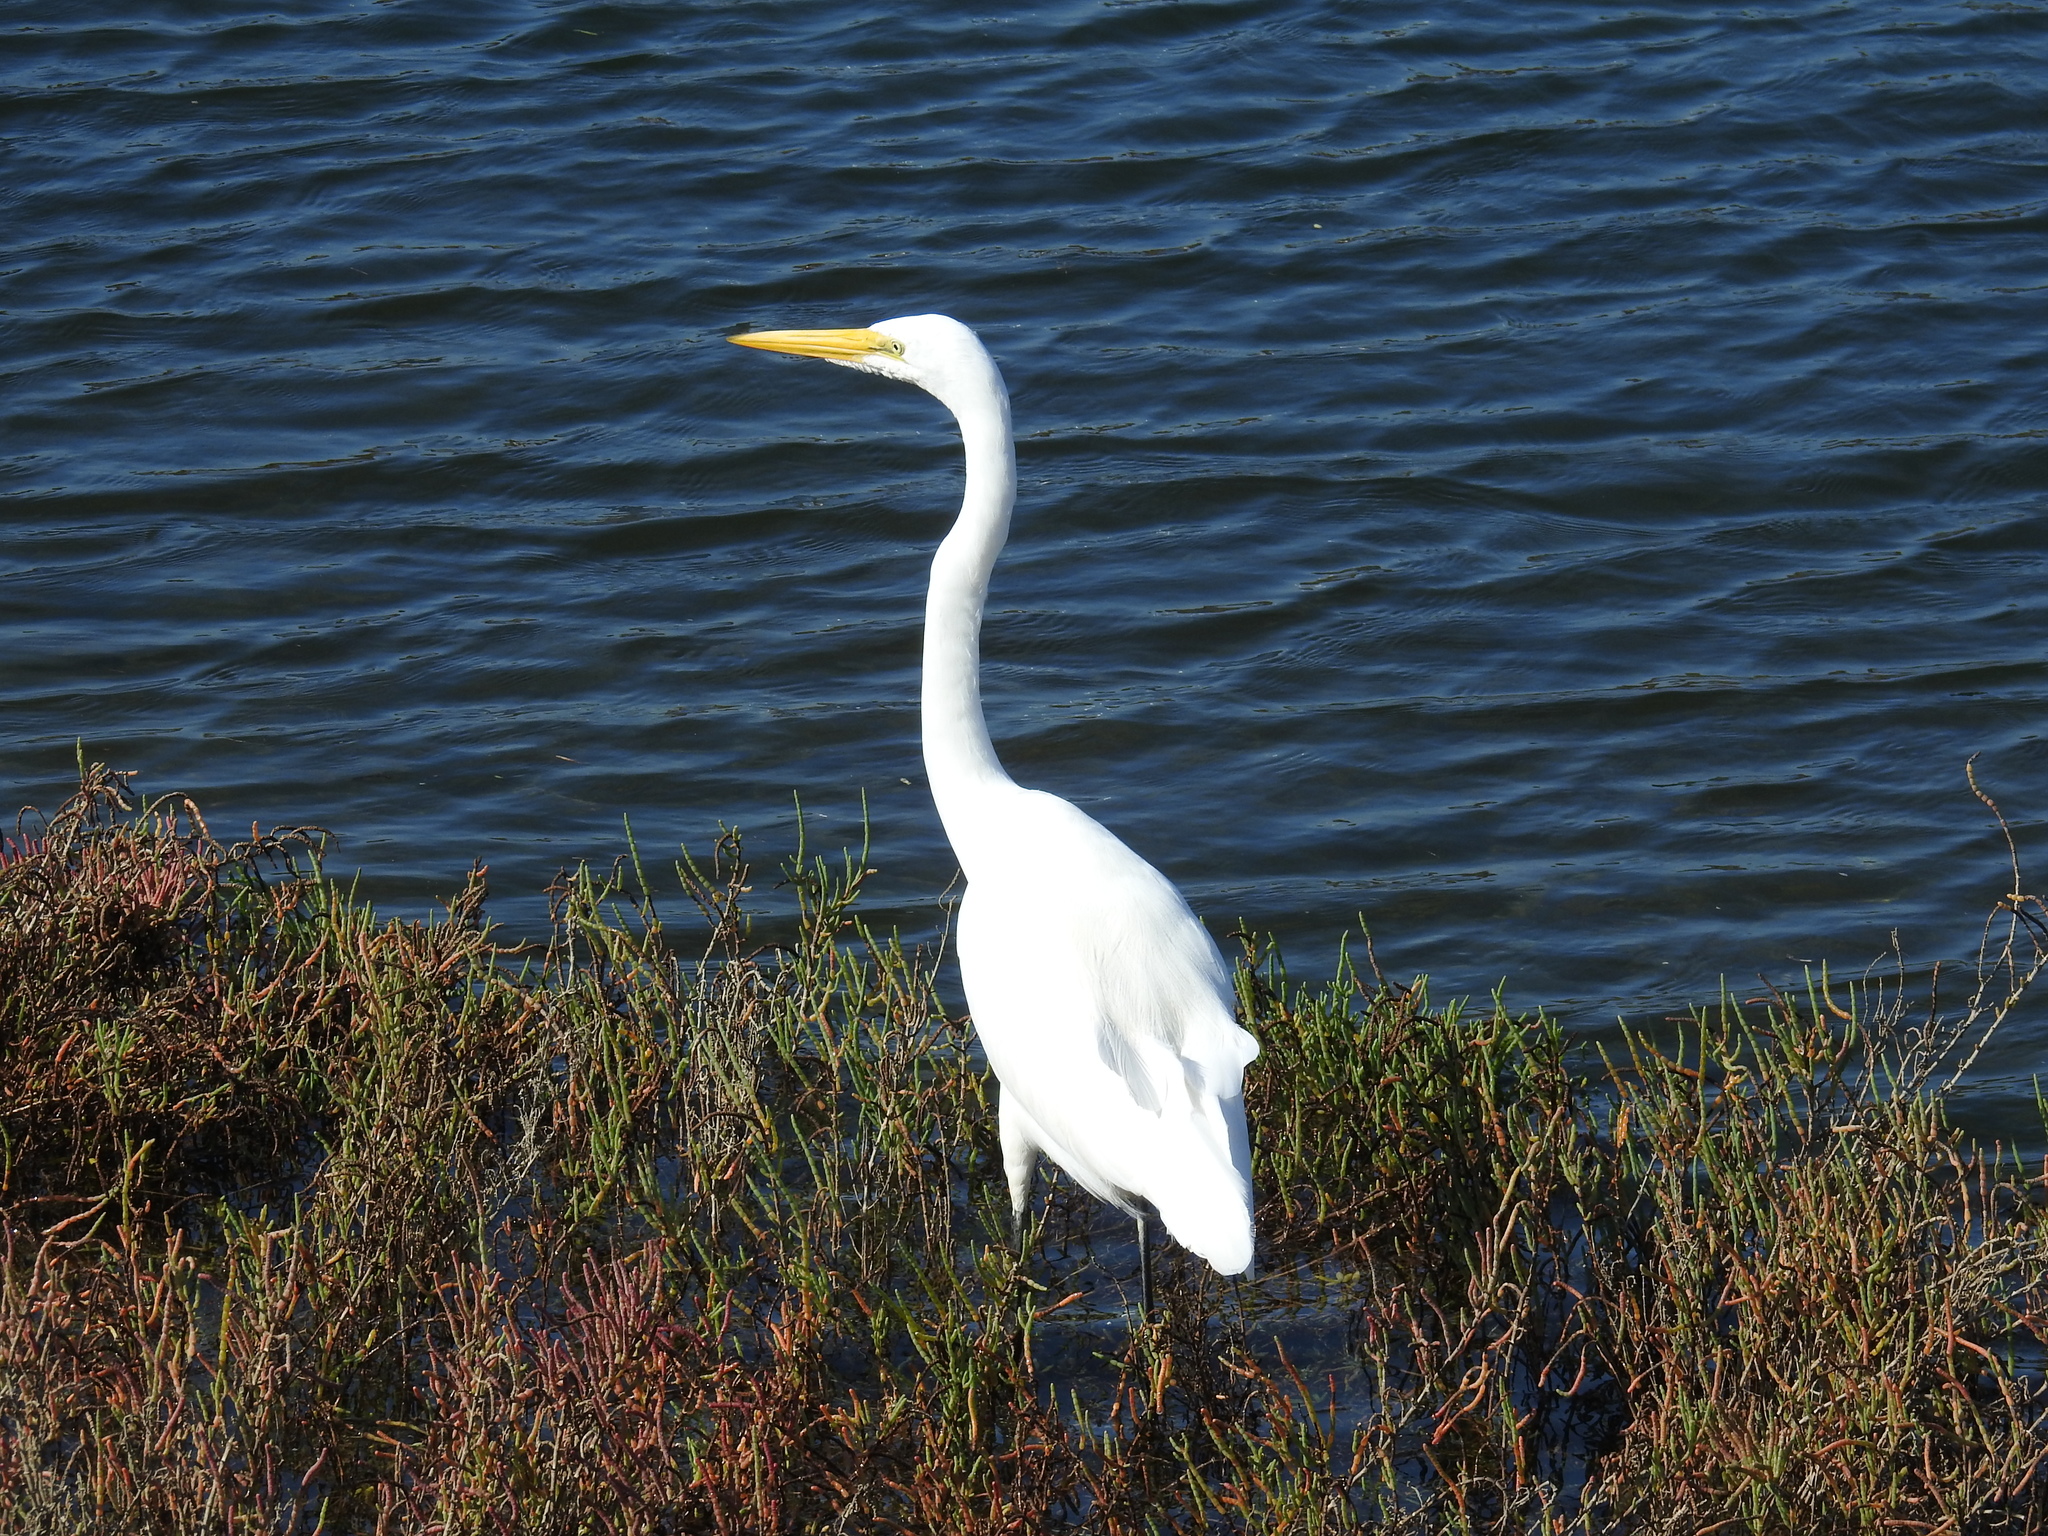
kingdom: Animalia
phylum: Chordata
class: Aves
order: Pelecaniformes
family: Ardeidae
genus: Ardea
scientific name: Ardea alba
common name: Great egret
